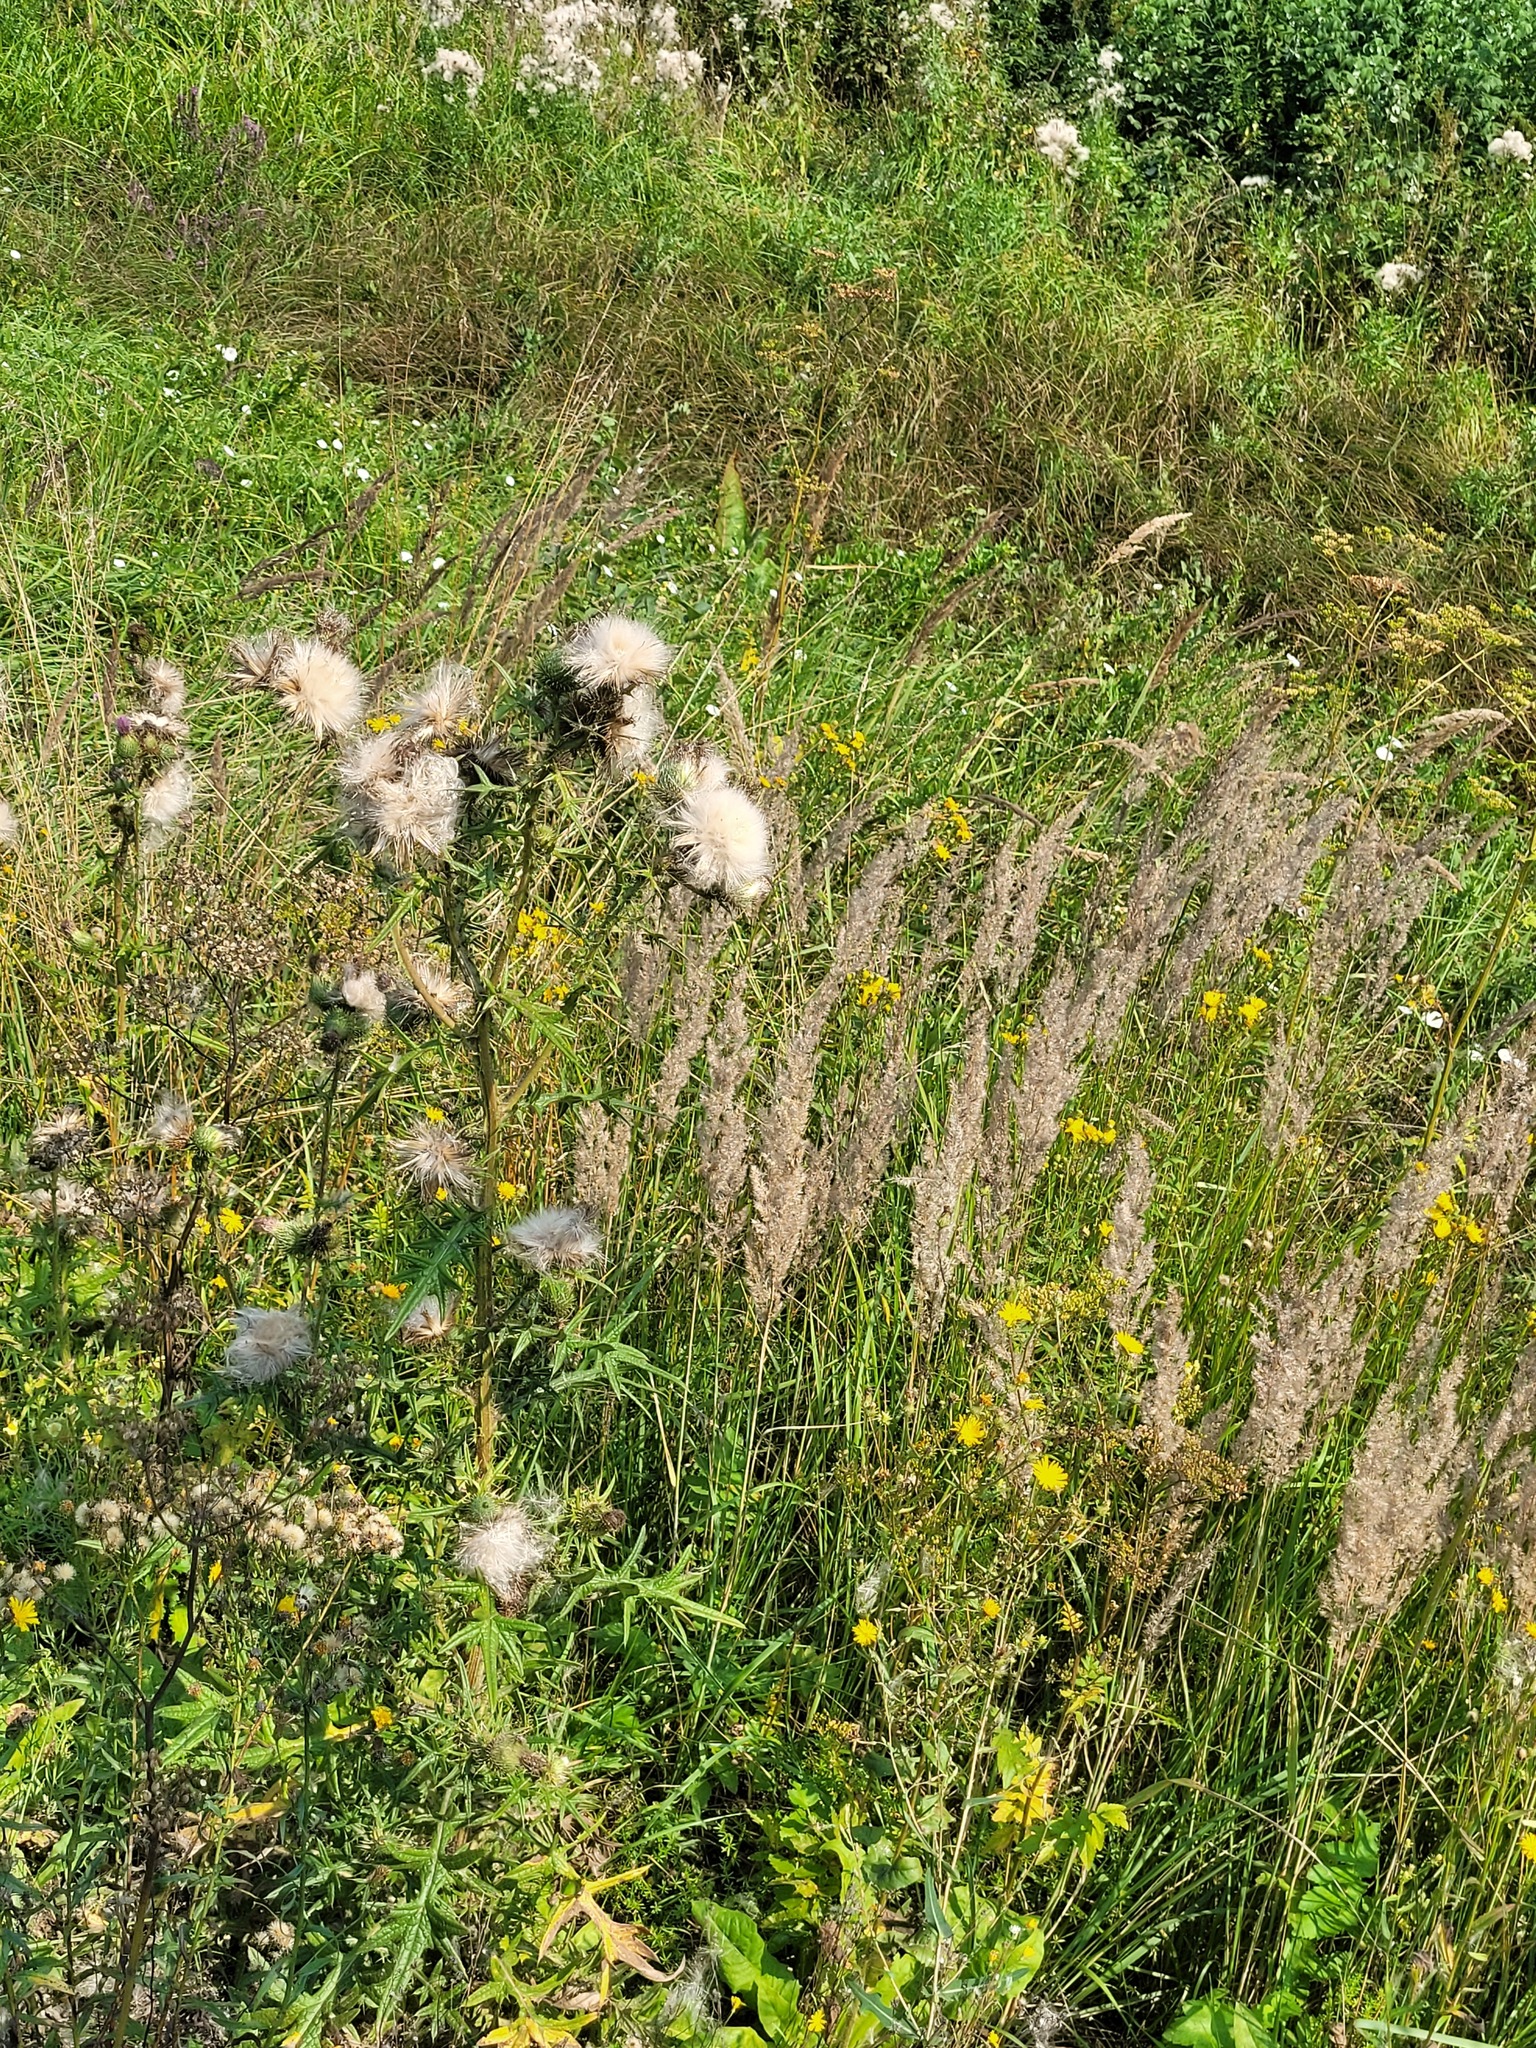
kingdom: Plantae
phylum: Tracheophyta
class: Magnoliopsida
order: Asterales
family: Asteraceae
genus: Cirsium
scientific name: Cirsium vulgare
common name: Bull thistle
